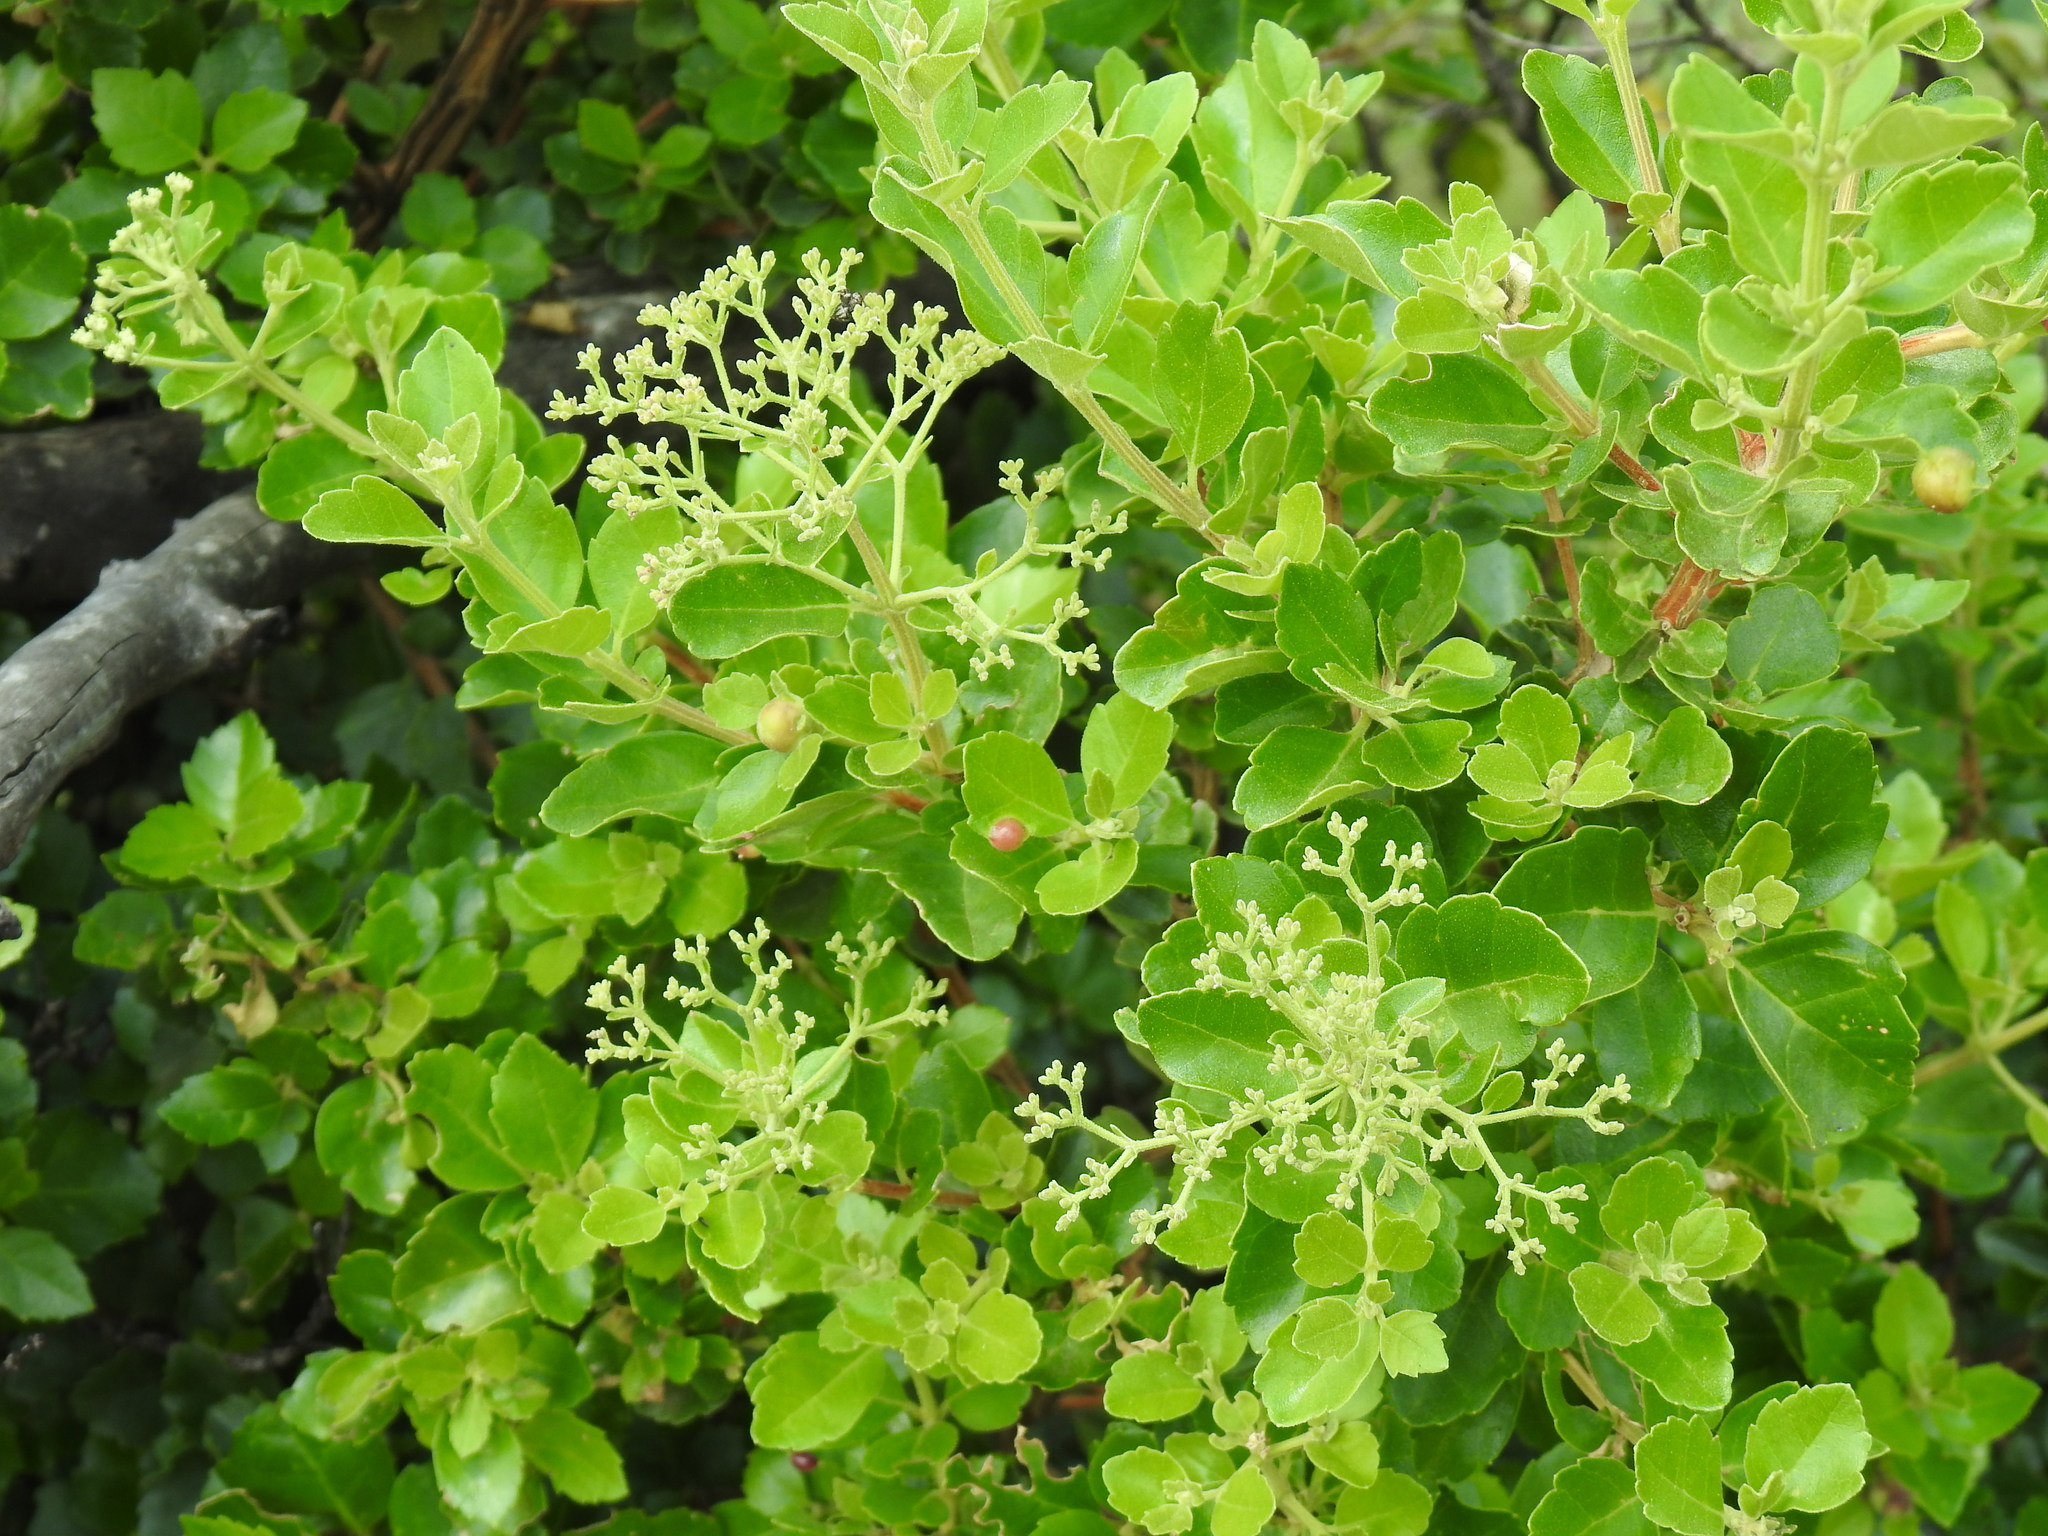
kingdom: Plantae
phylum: Tracheophyta
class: Magnoliopsida
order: Lamiales
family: Stilbaceae
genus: Nuxia
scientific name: Nuxia congesta
